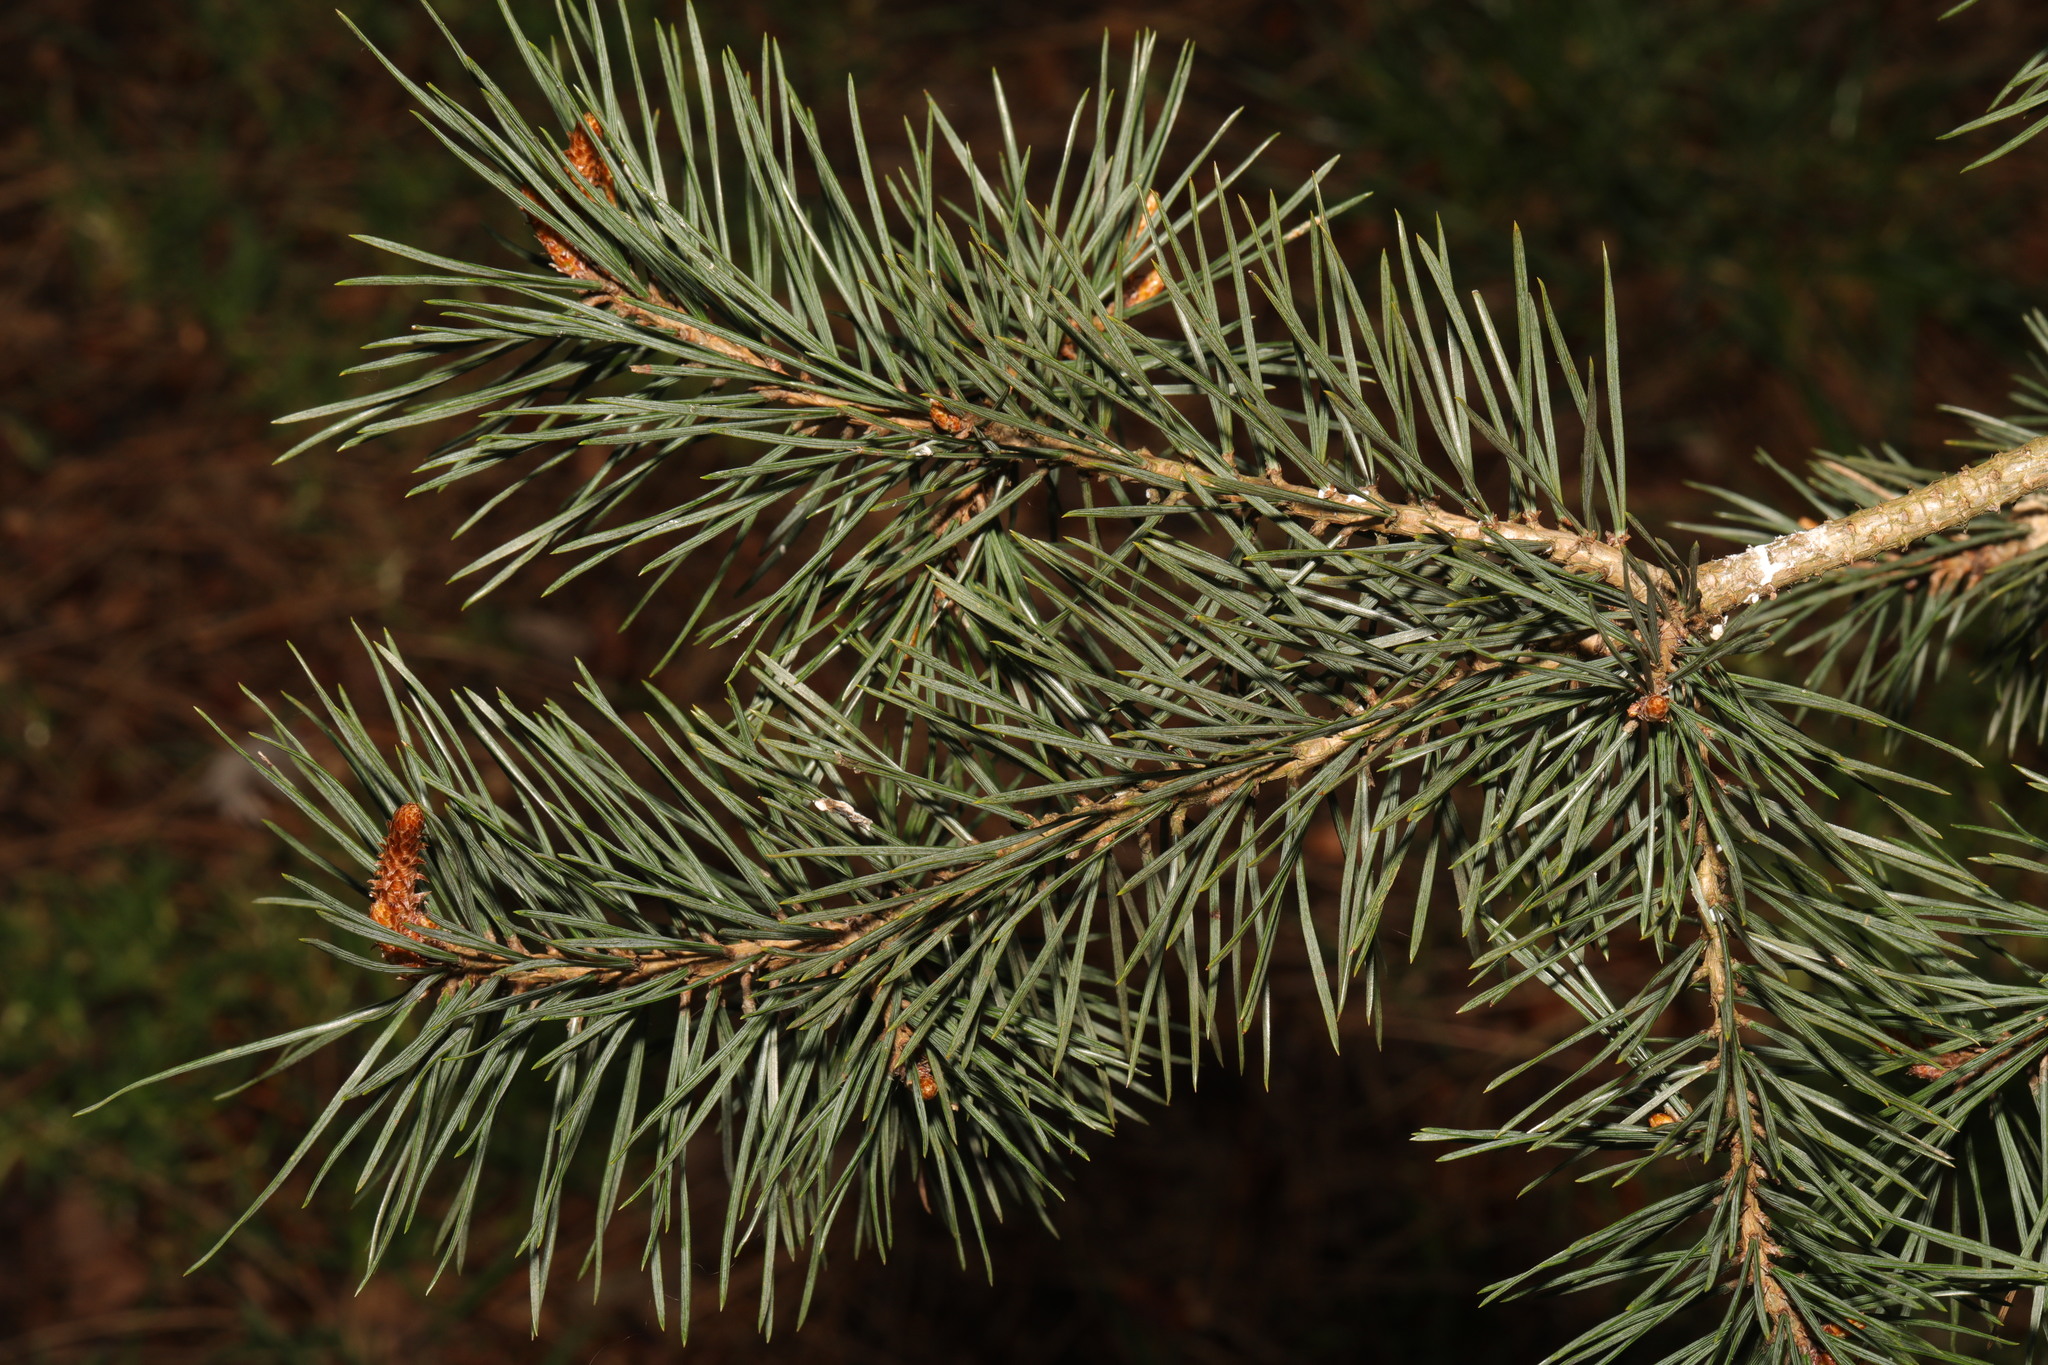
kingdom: Plantae
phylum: Tracheophyta
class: Pinopsida
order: Pinales
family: Pinaceae
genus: Pinus
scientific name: Pinus sylvestris
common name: Scots pine
